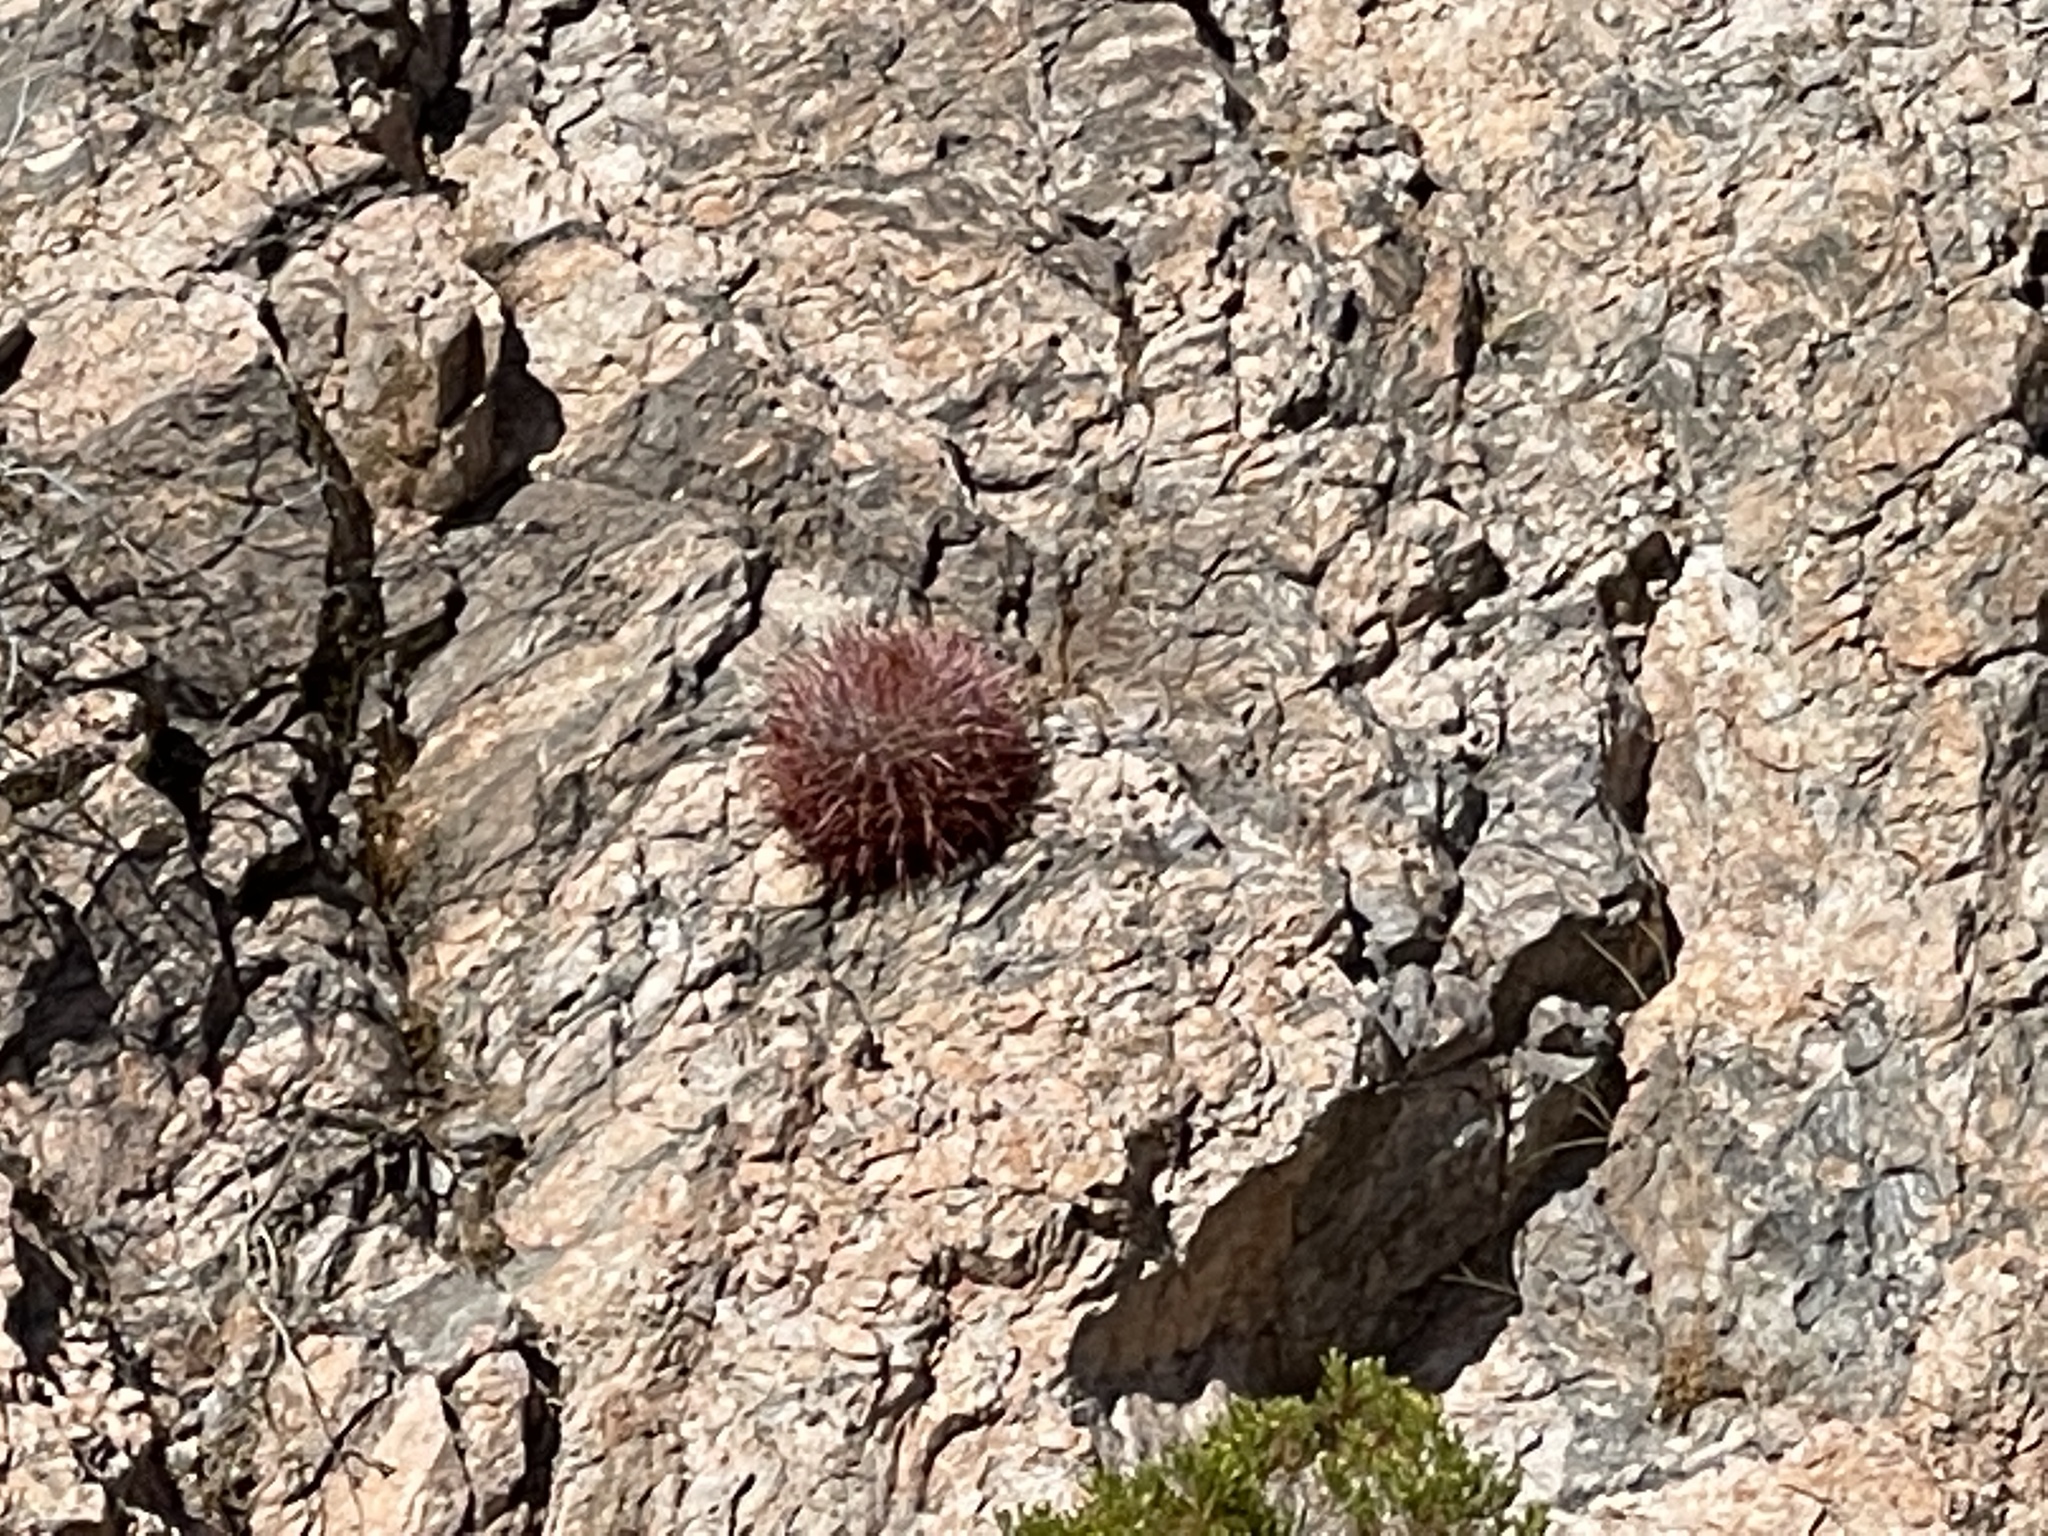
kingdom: Plantae
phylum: Tracheophyta
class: Magnoliopsida
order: Caryophyllales
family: Cactaceae
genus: Ferocactus
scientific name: Ferocactus cylindraceus
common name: California barrel cactus
